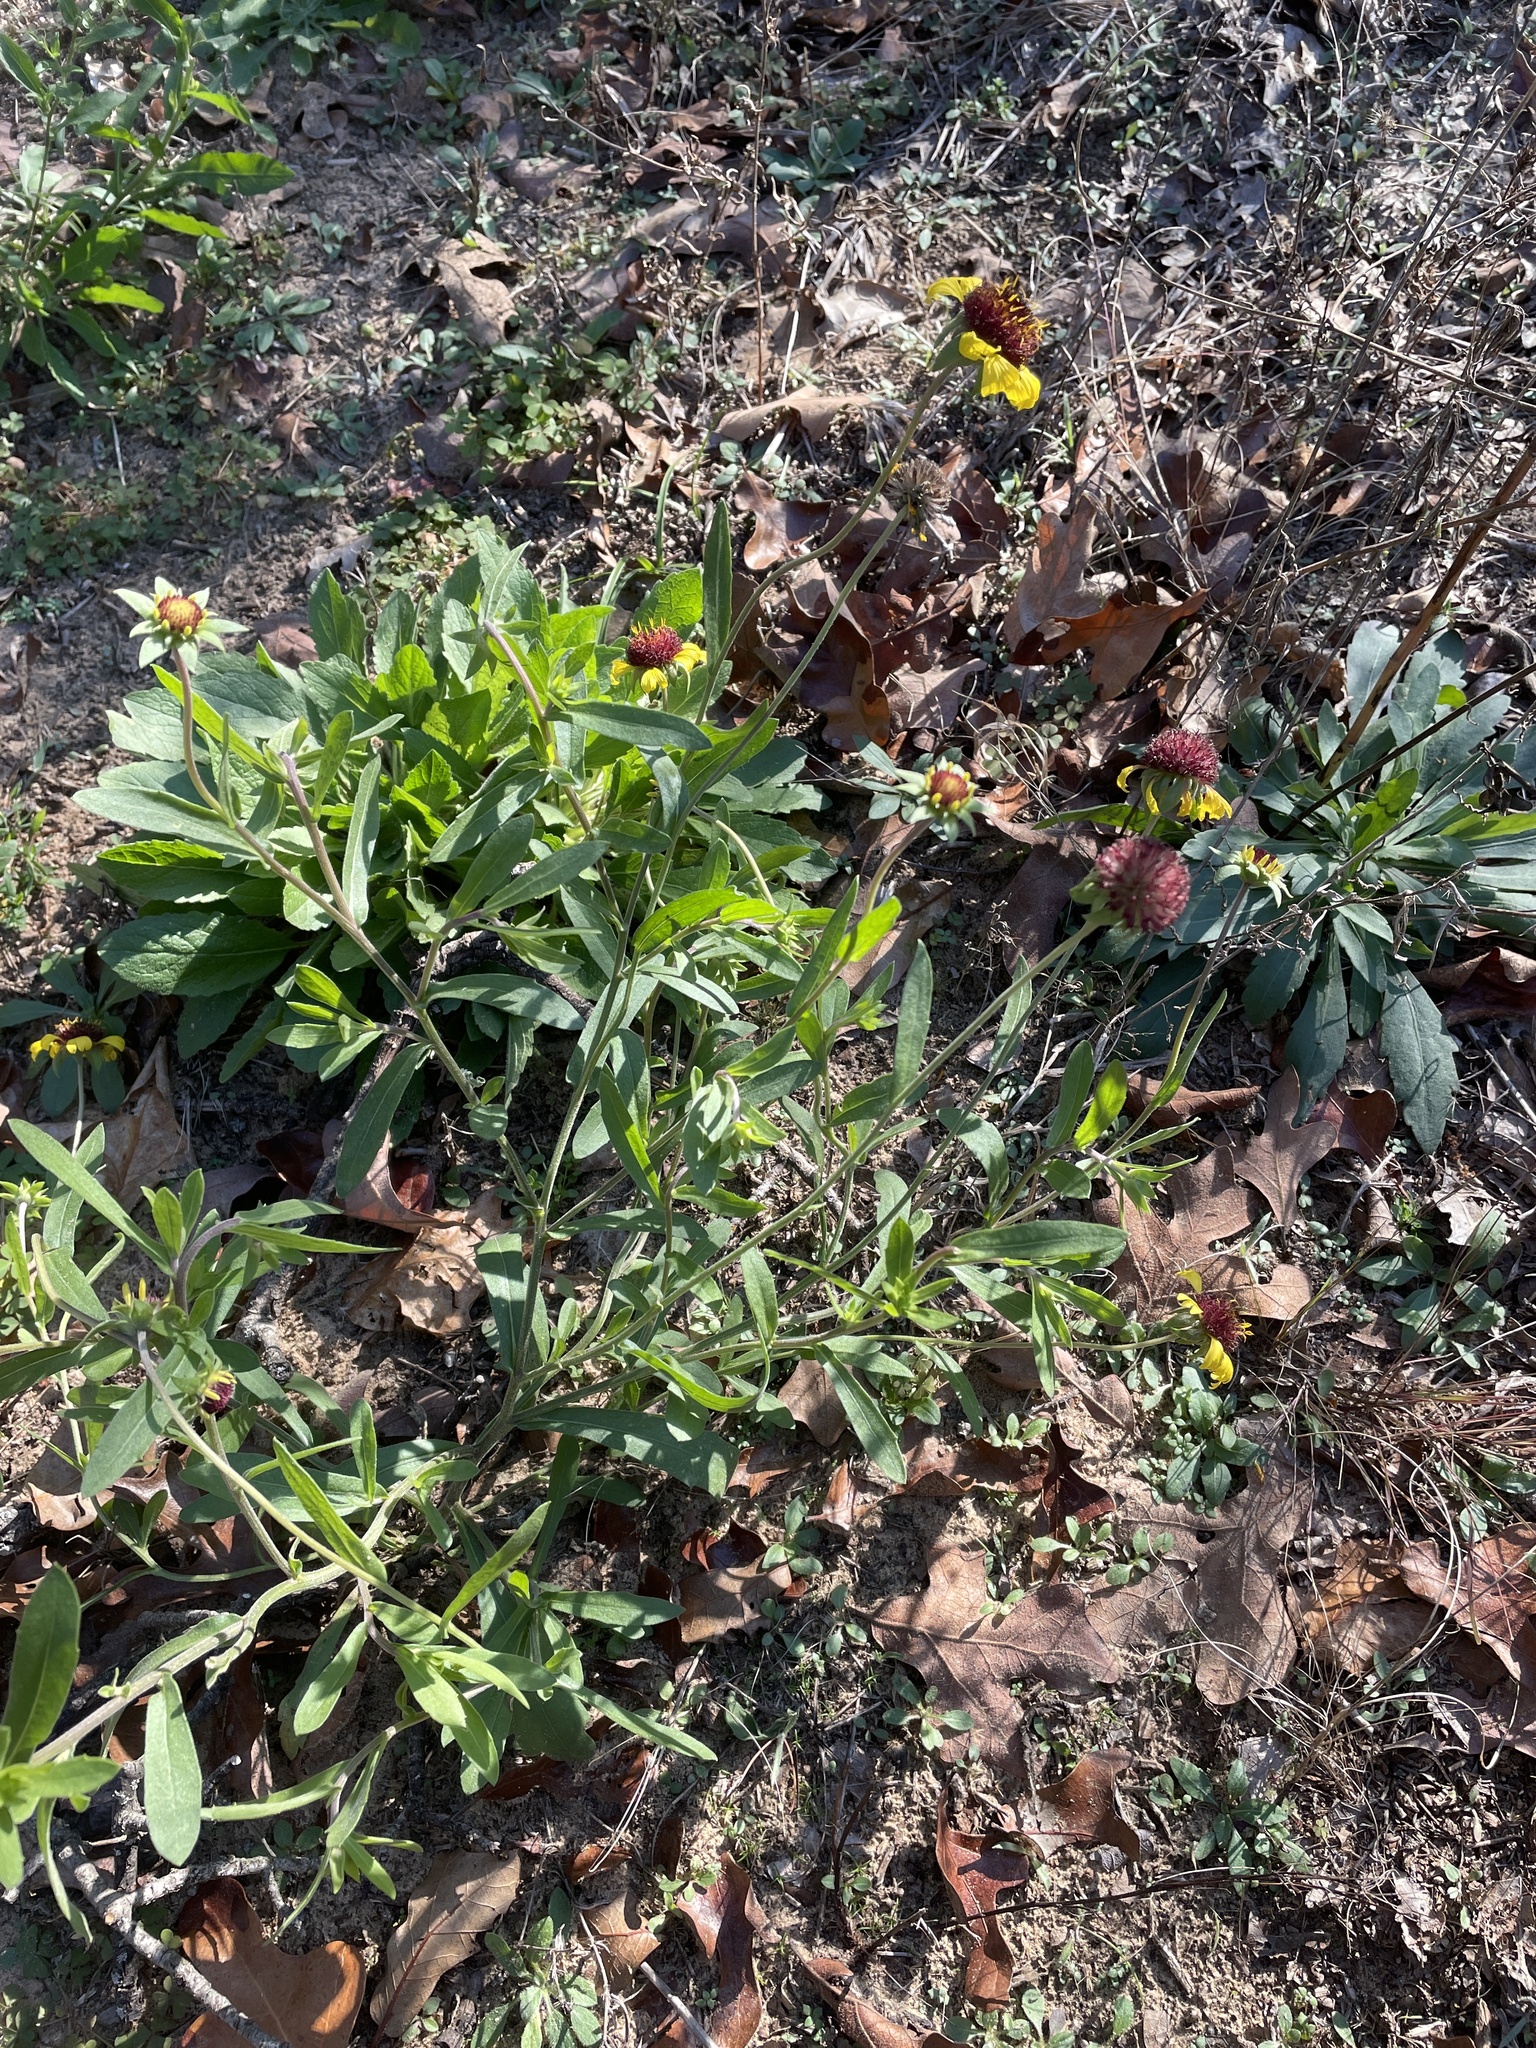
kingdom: Plantae
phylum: Tracheophyta
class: Magnoliopsida
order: Asterales
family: Asteraceae
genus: Gaillardia
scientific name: Gaillardia aestivalis
